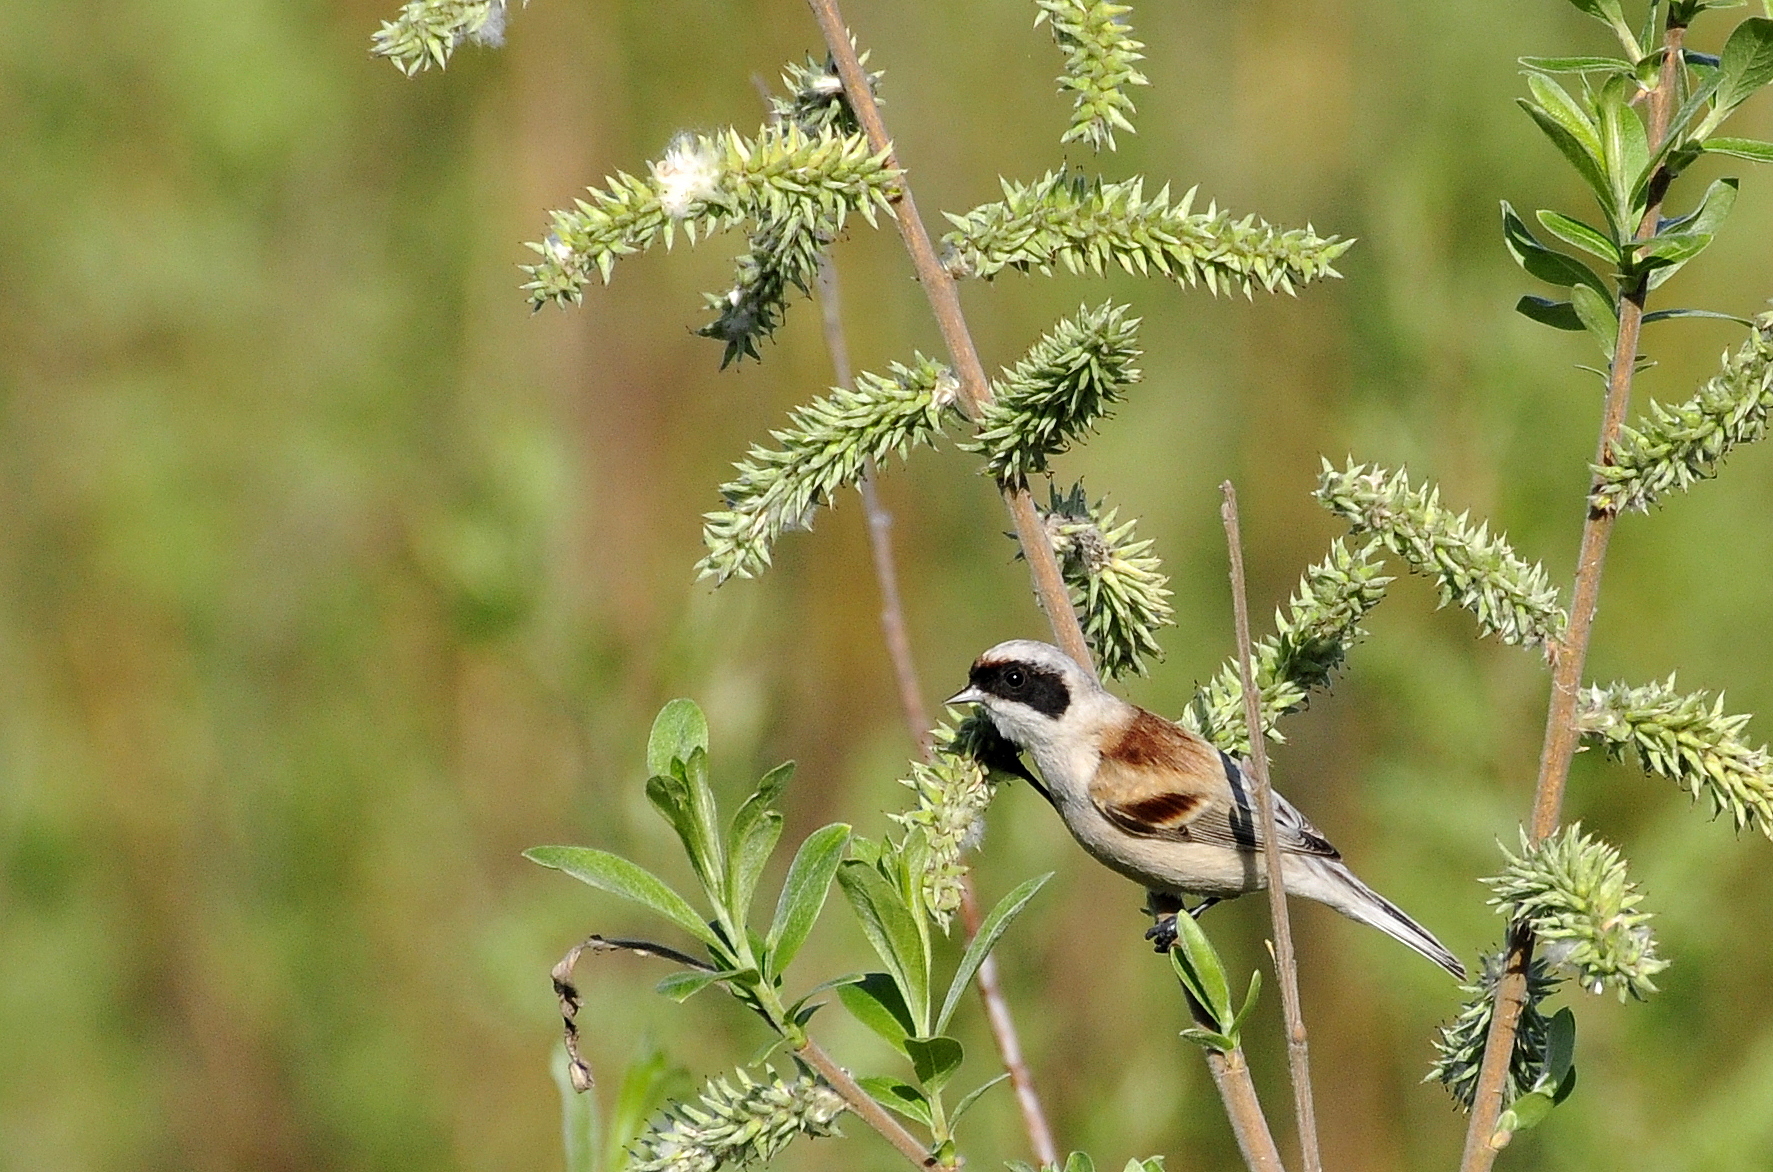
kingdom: Animalia
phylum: Chordata
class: Aves
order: Passeriformes
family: Remizidae
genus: Remiz
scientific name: Remiz pendulinus
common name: Eurasian penduline tit
